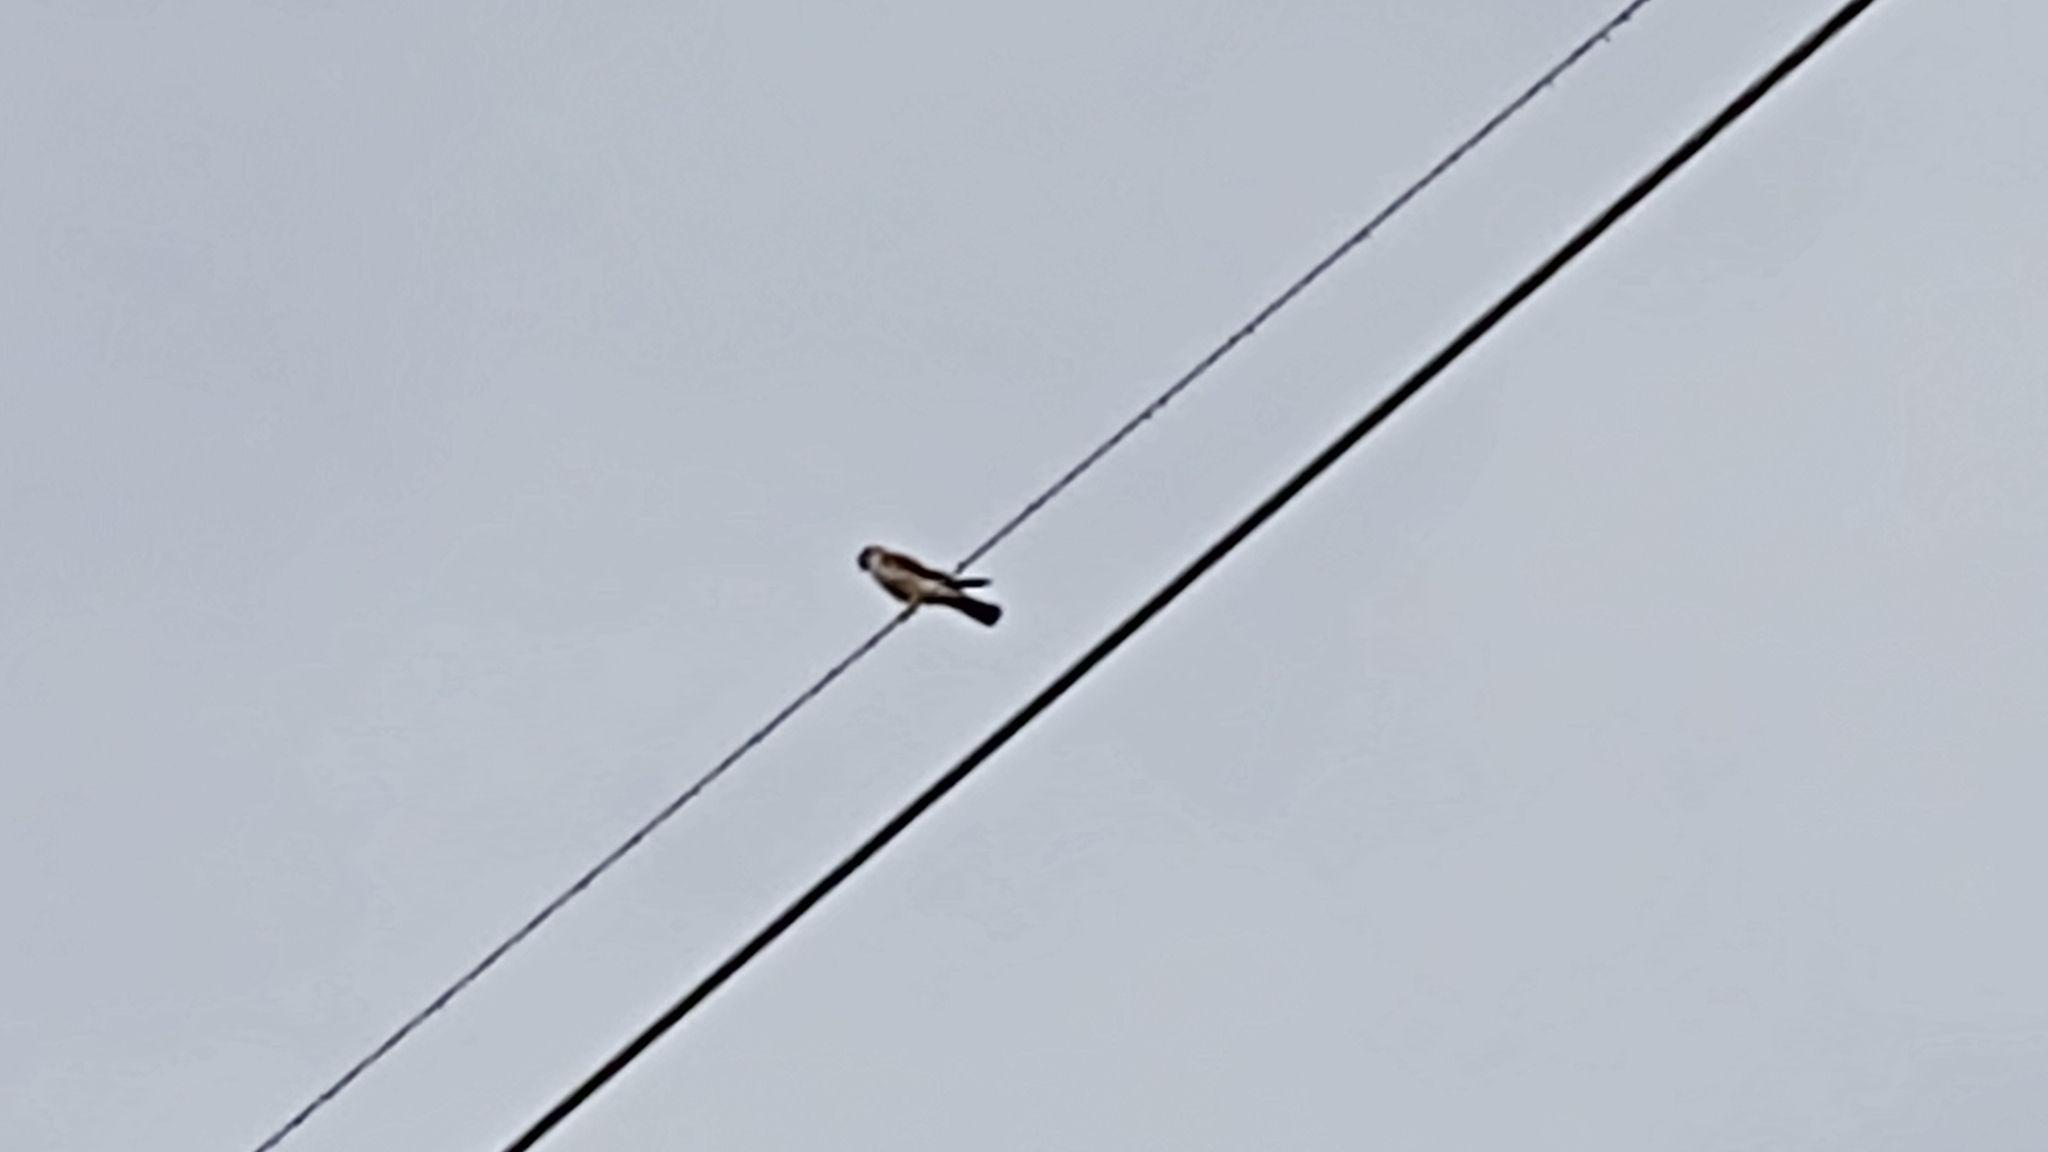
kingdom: Animalia
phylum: Chordata
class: Aves
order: Falconiformes
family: Falconidae
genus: Falco
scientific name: Falco sparverius
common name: American kestrel
